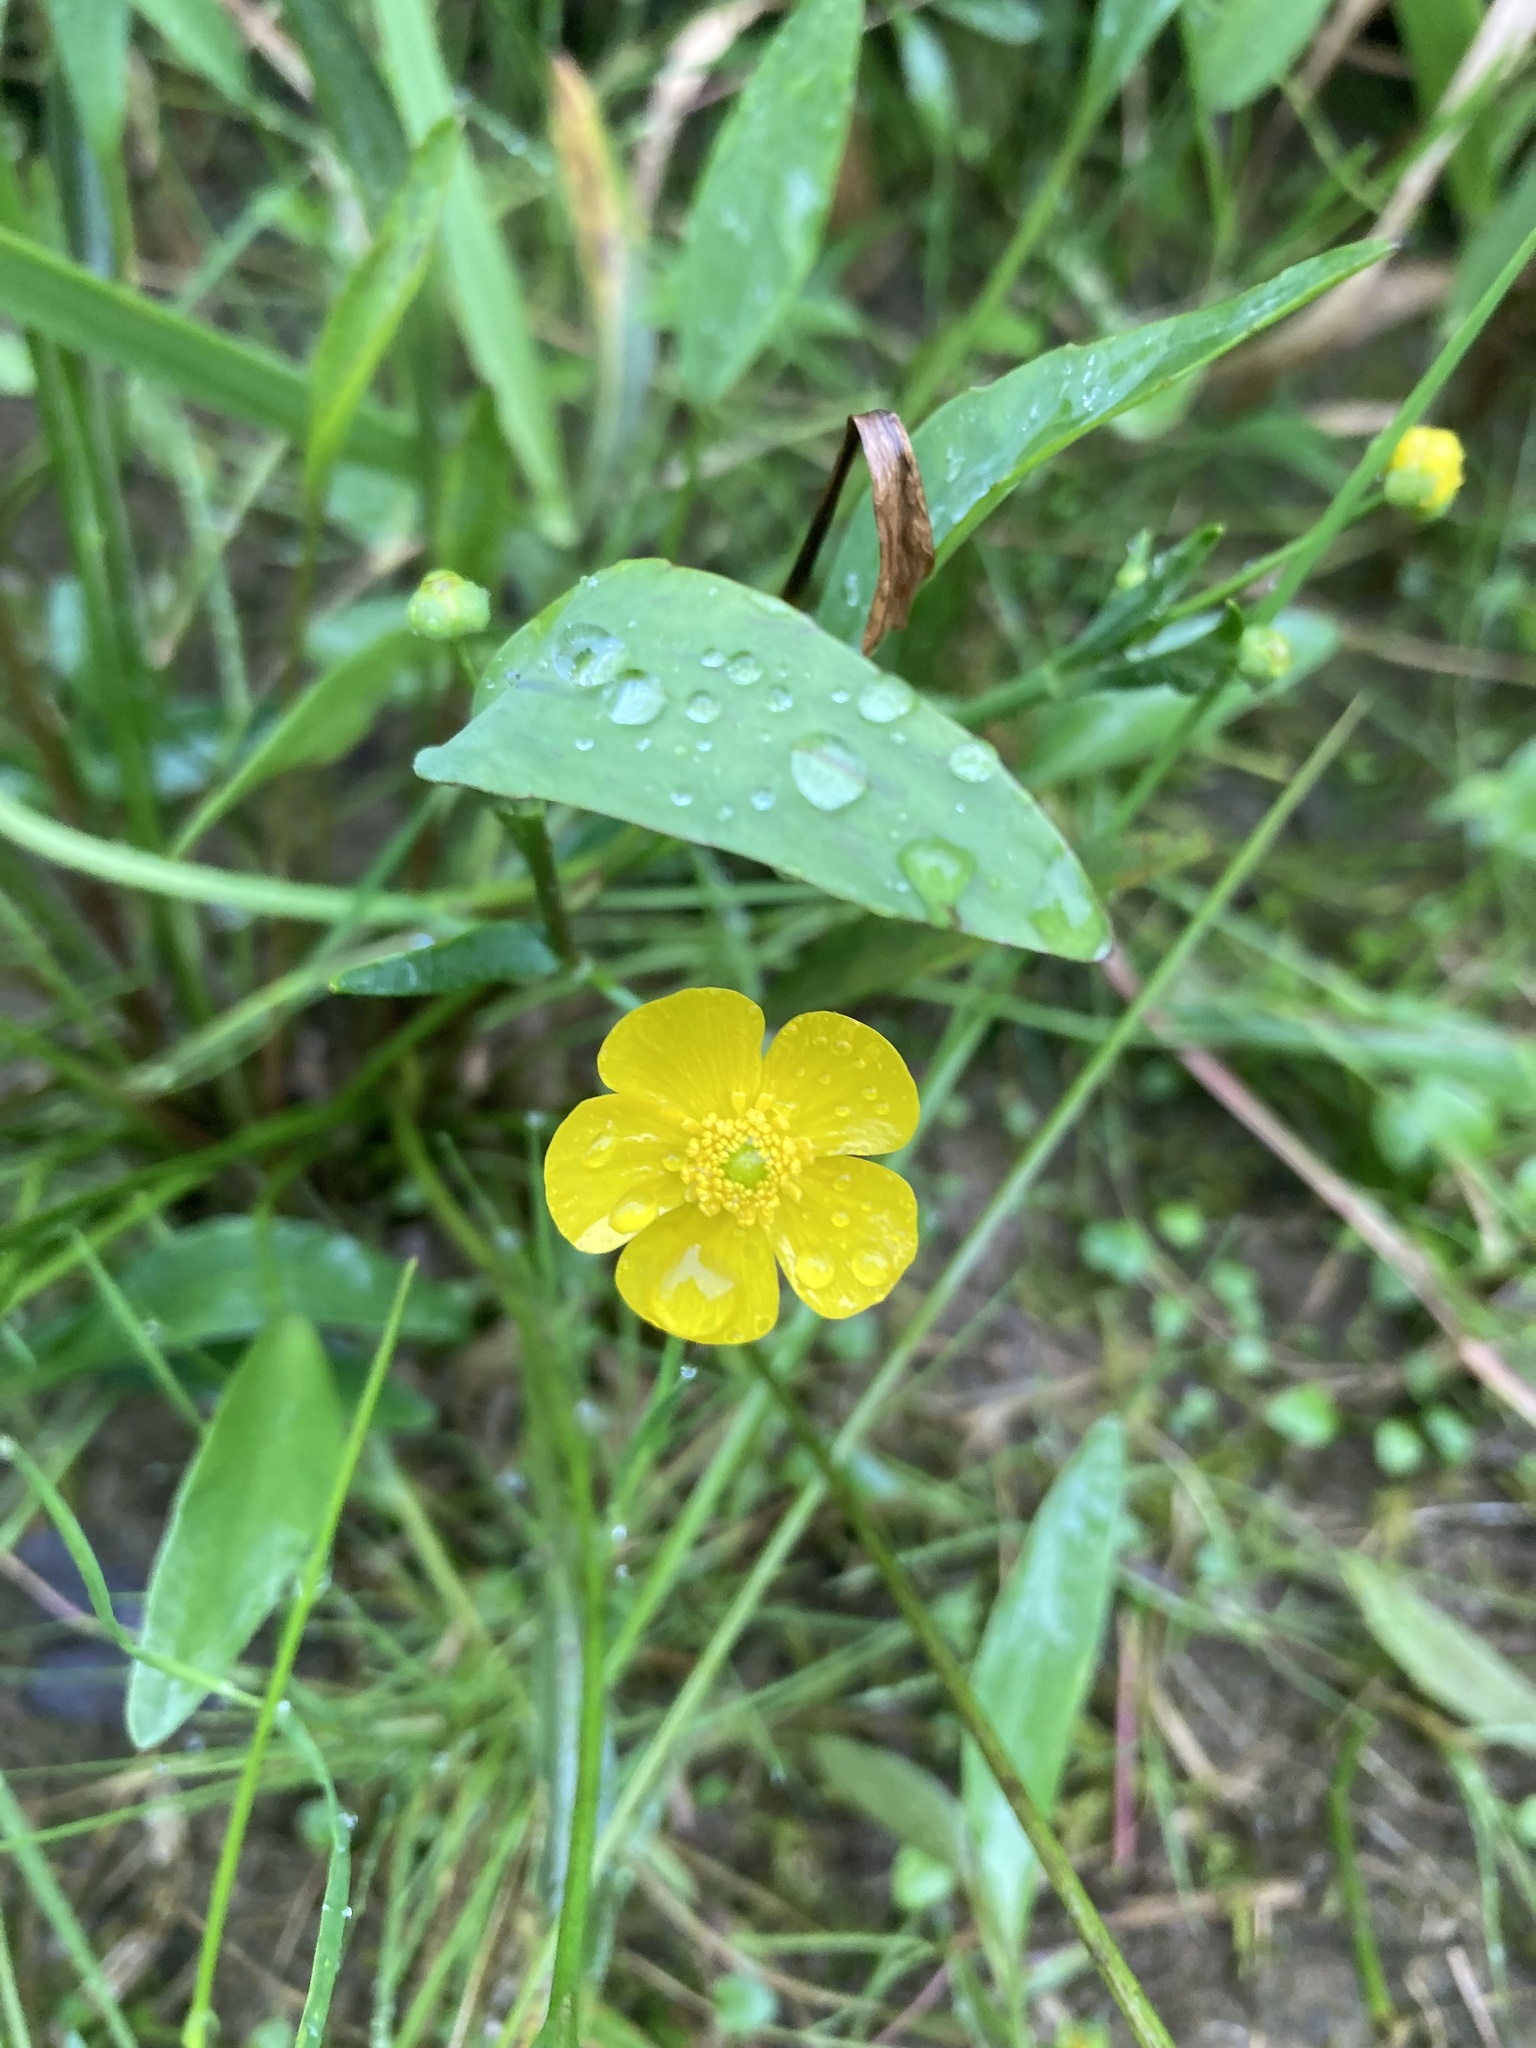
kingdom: Plantae
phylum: Tracheophyta
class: Magnoliopsida
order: Ranunculales
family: Ranunculaceae
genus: Ranunculus
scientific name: Ranunculus flammula
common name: Lesser spearwort
